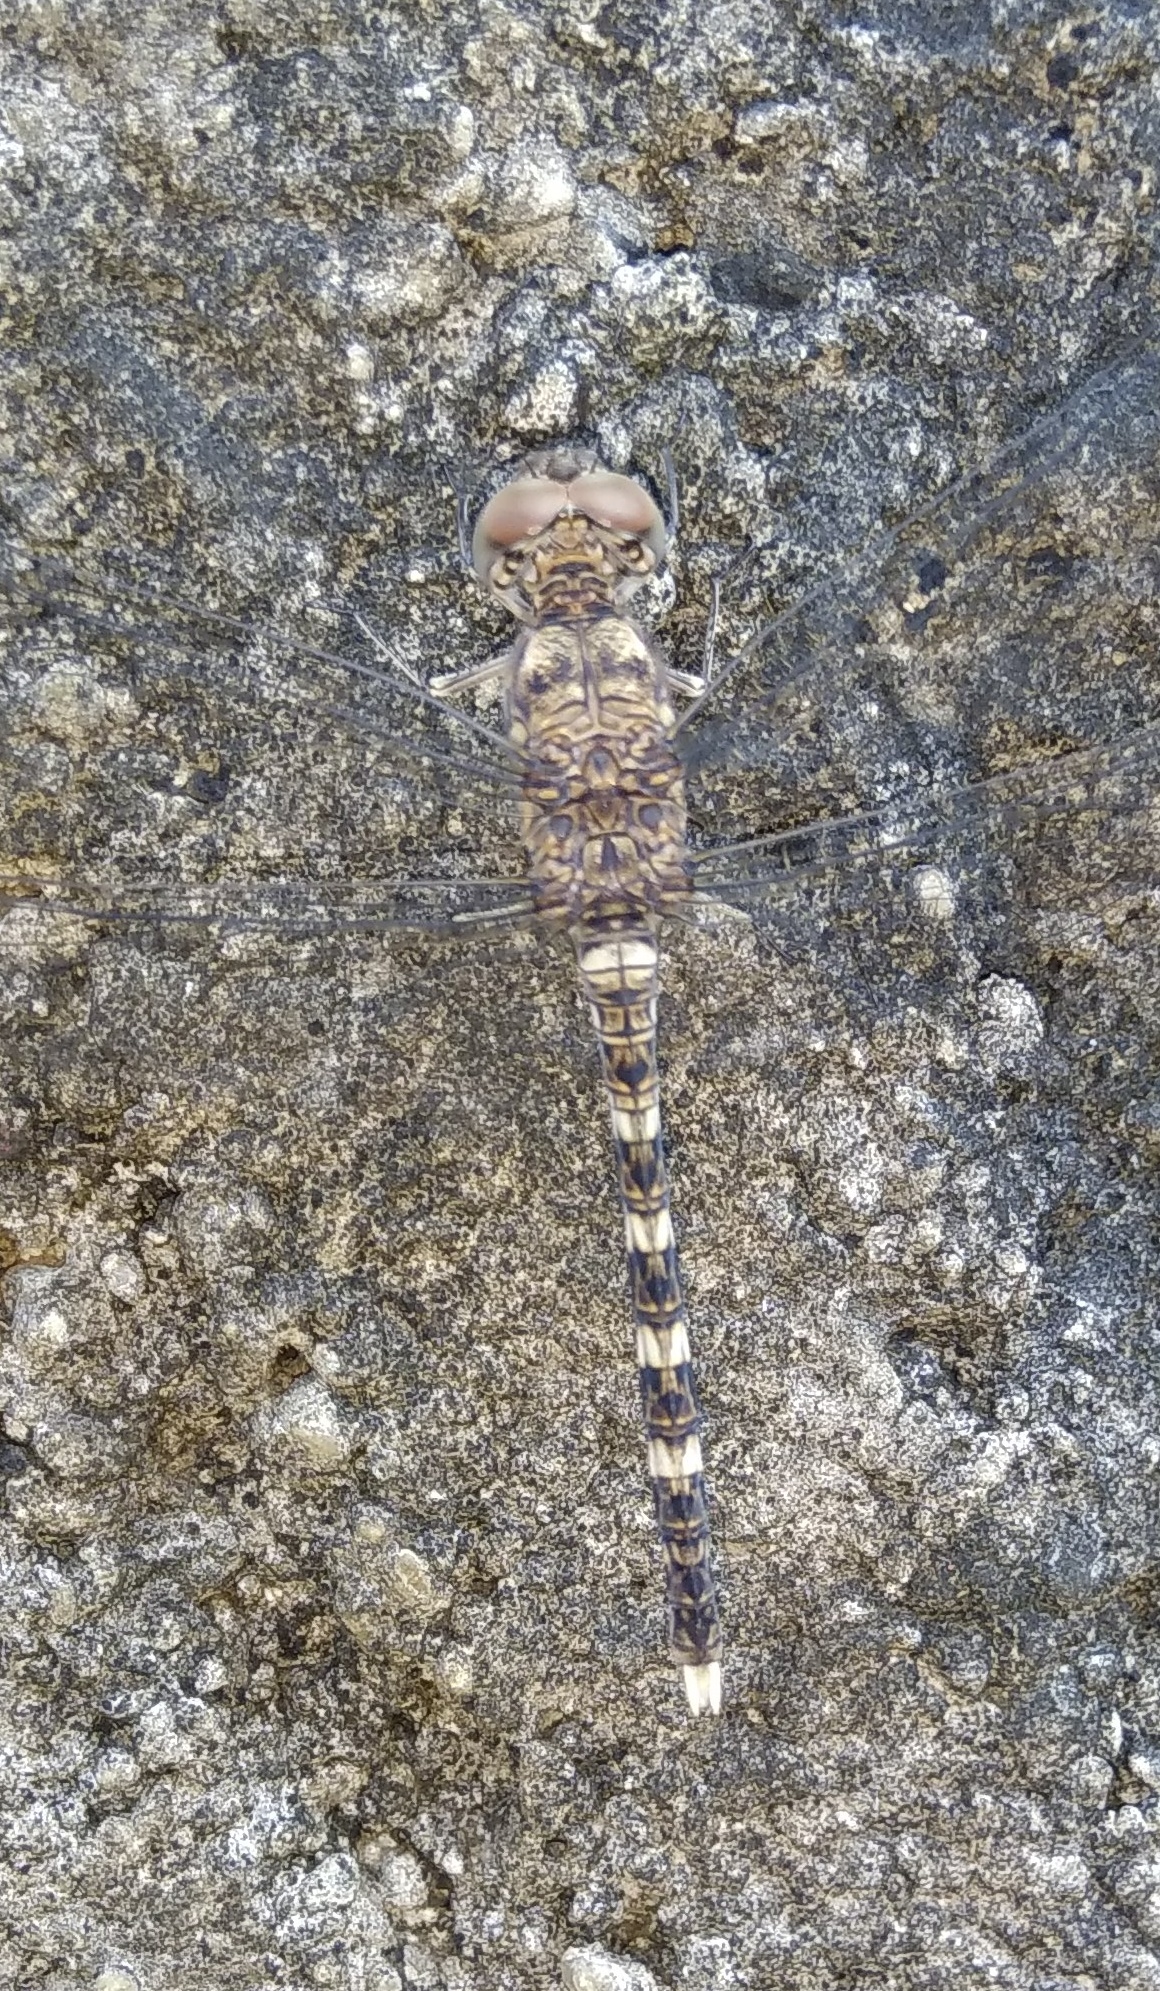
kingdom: Animalia
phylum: Arthropoda
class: Insecta
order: Odonata
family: Libellulidae
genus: Bradinopyga
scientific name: Bradinopyga geminata
